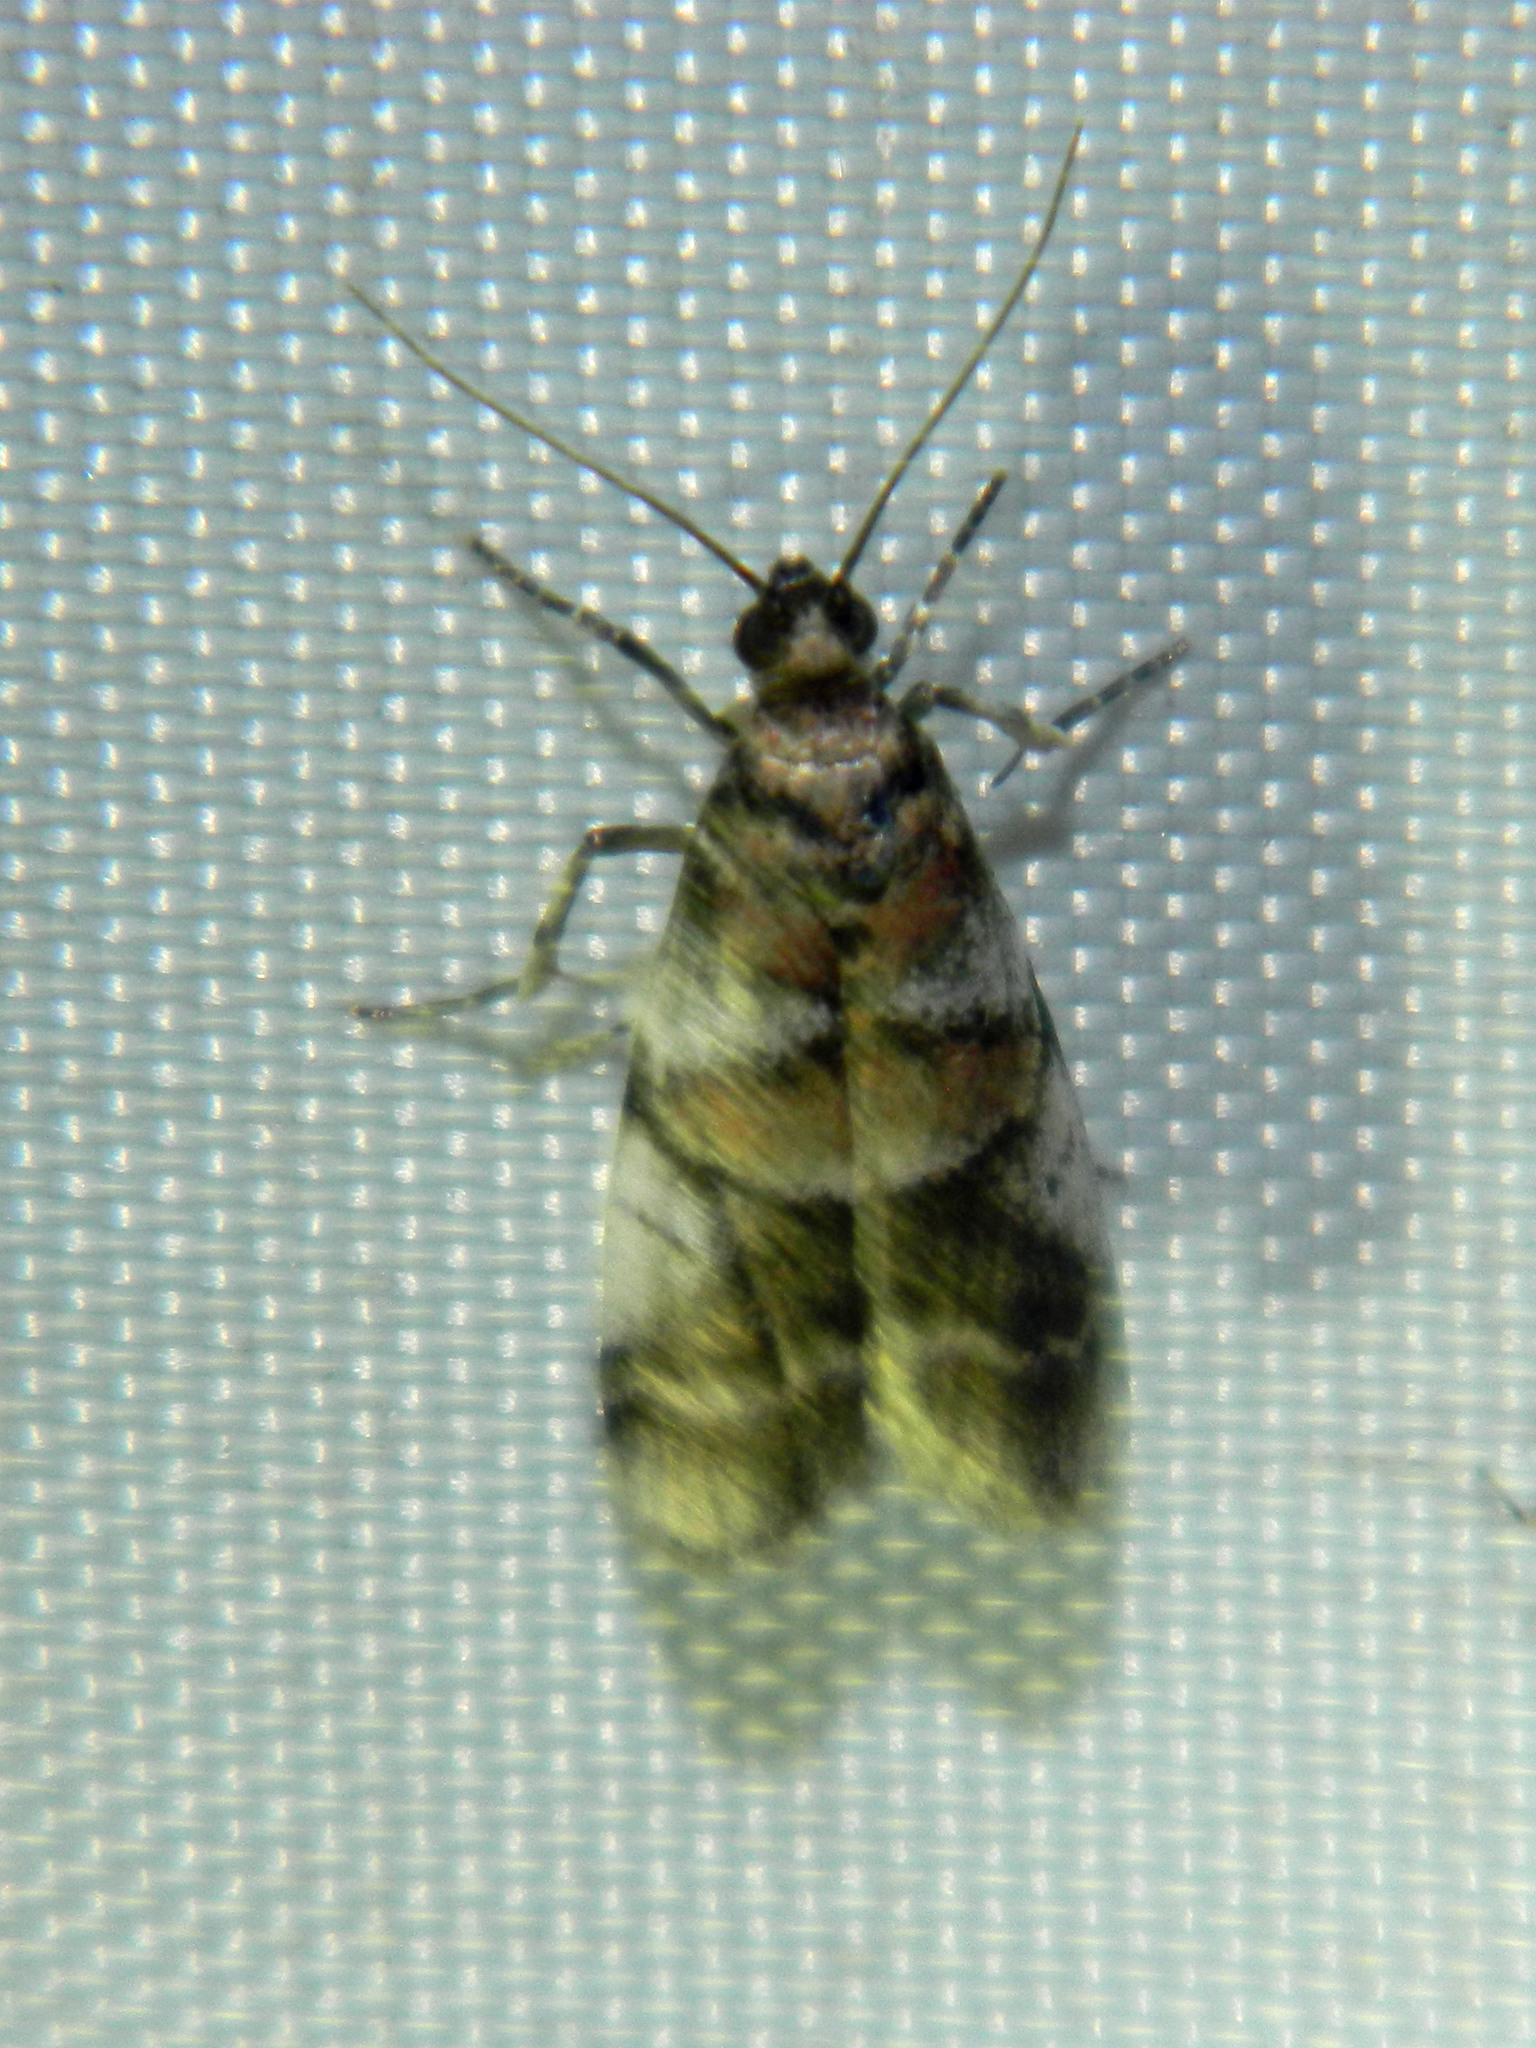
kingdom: Animalia
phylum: Arthropoda
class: Insecta
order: Lepidoptera
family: Pyralidae
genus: Acrobasis
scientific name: Acrobasis indigenella
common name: Leaf crumpler moth
